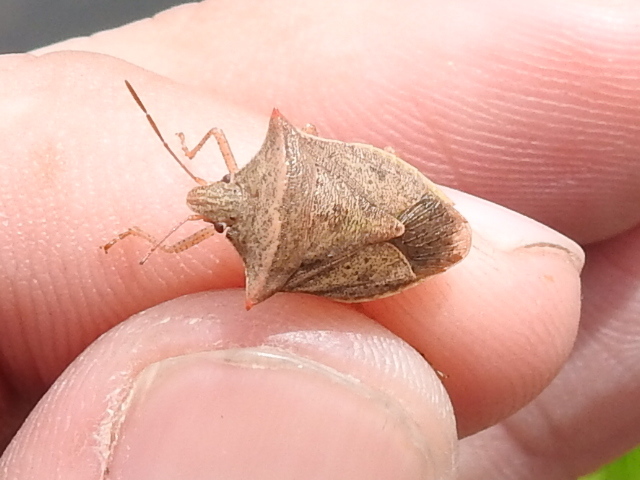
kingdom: Animalia
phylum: Arthropoda
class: Insecta
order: Hemiptera
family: Pentatomidae
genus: Euschistus
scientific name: Euschistus ictericus
